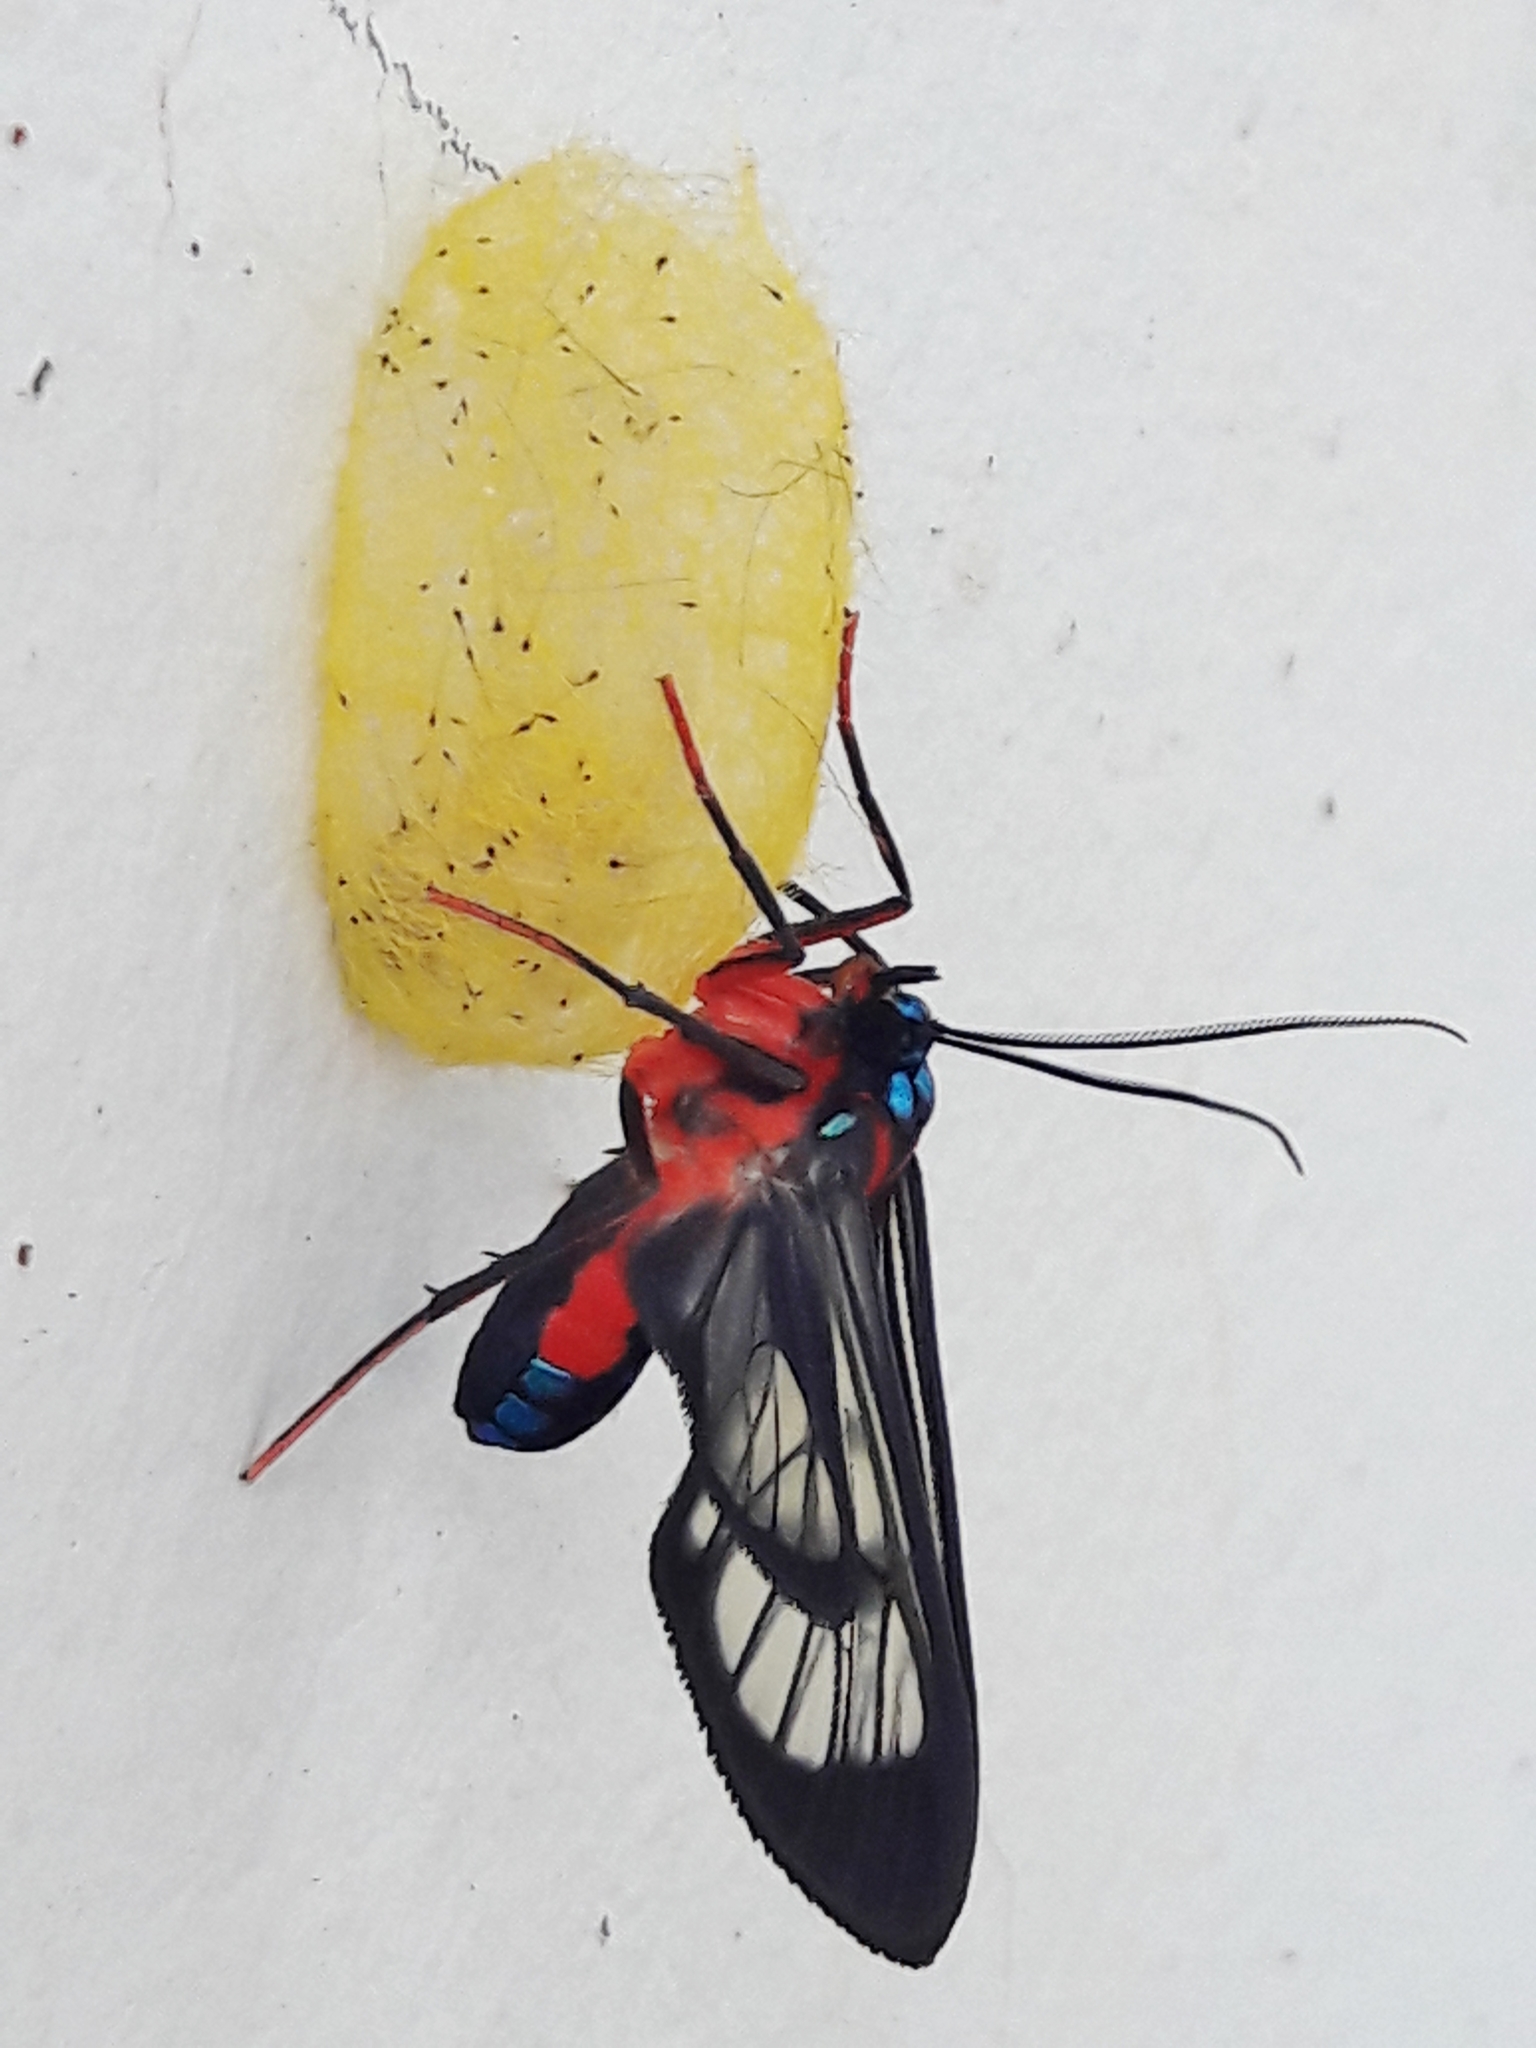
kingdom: Animalia
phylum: Arthropoda
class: Insecta
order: Lepidoptera
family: Erebidae
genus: Cosmosoma
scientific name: Cosmosoma auge
